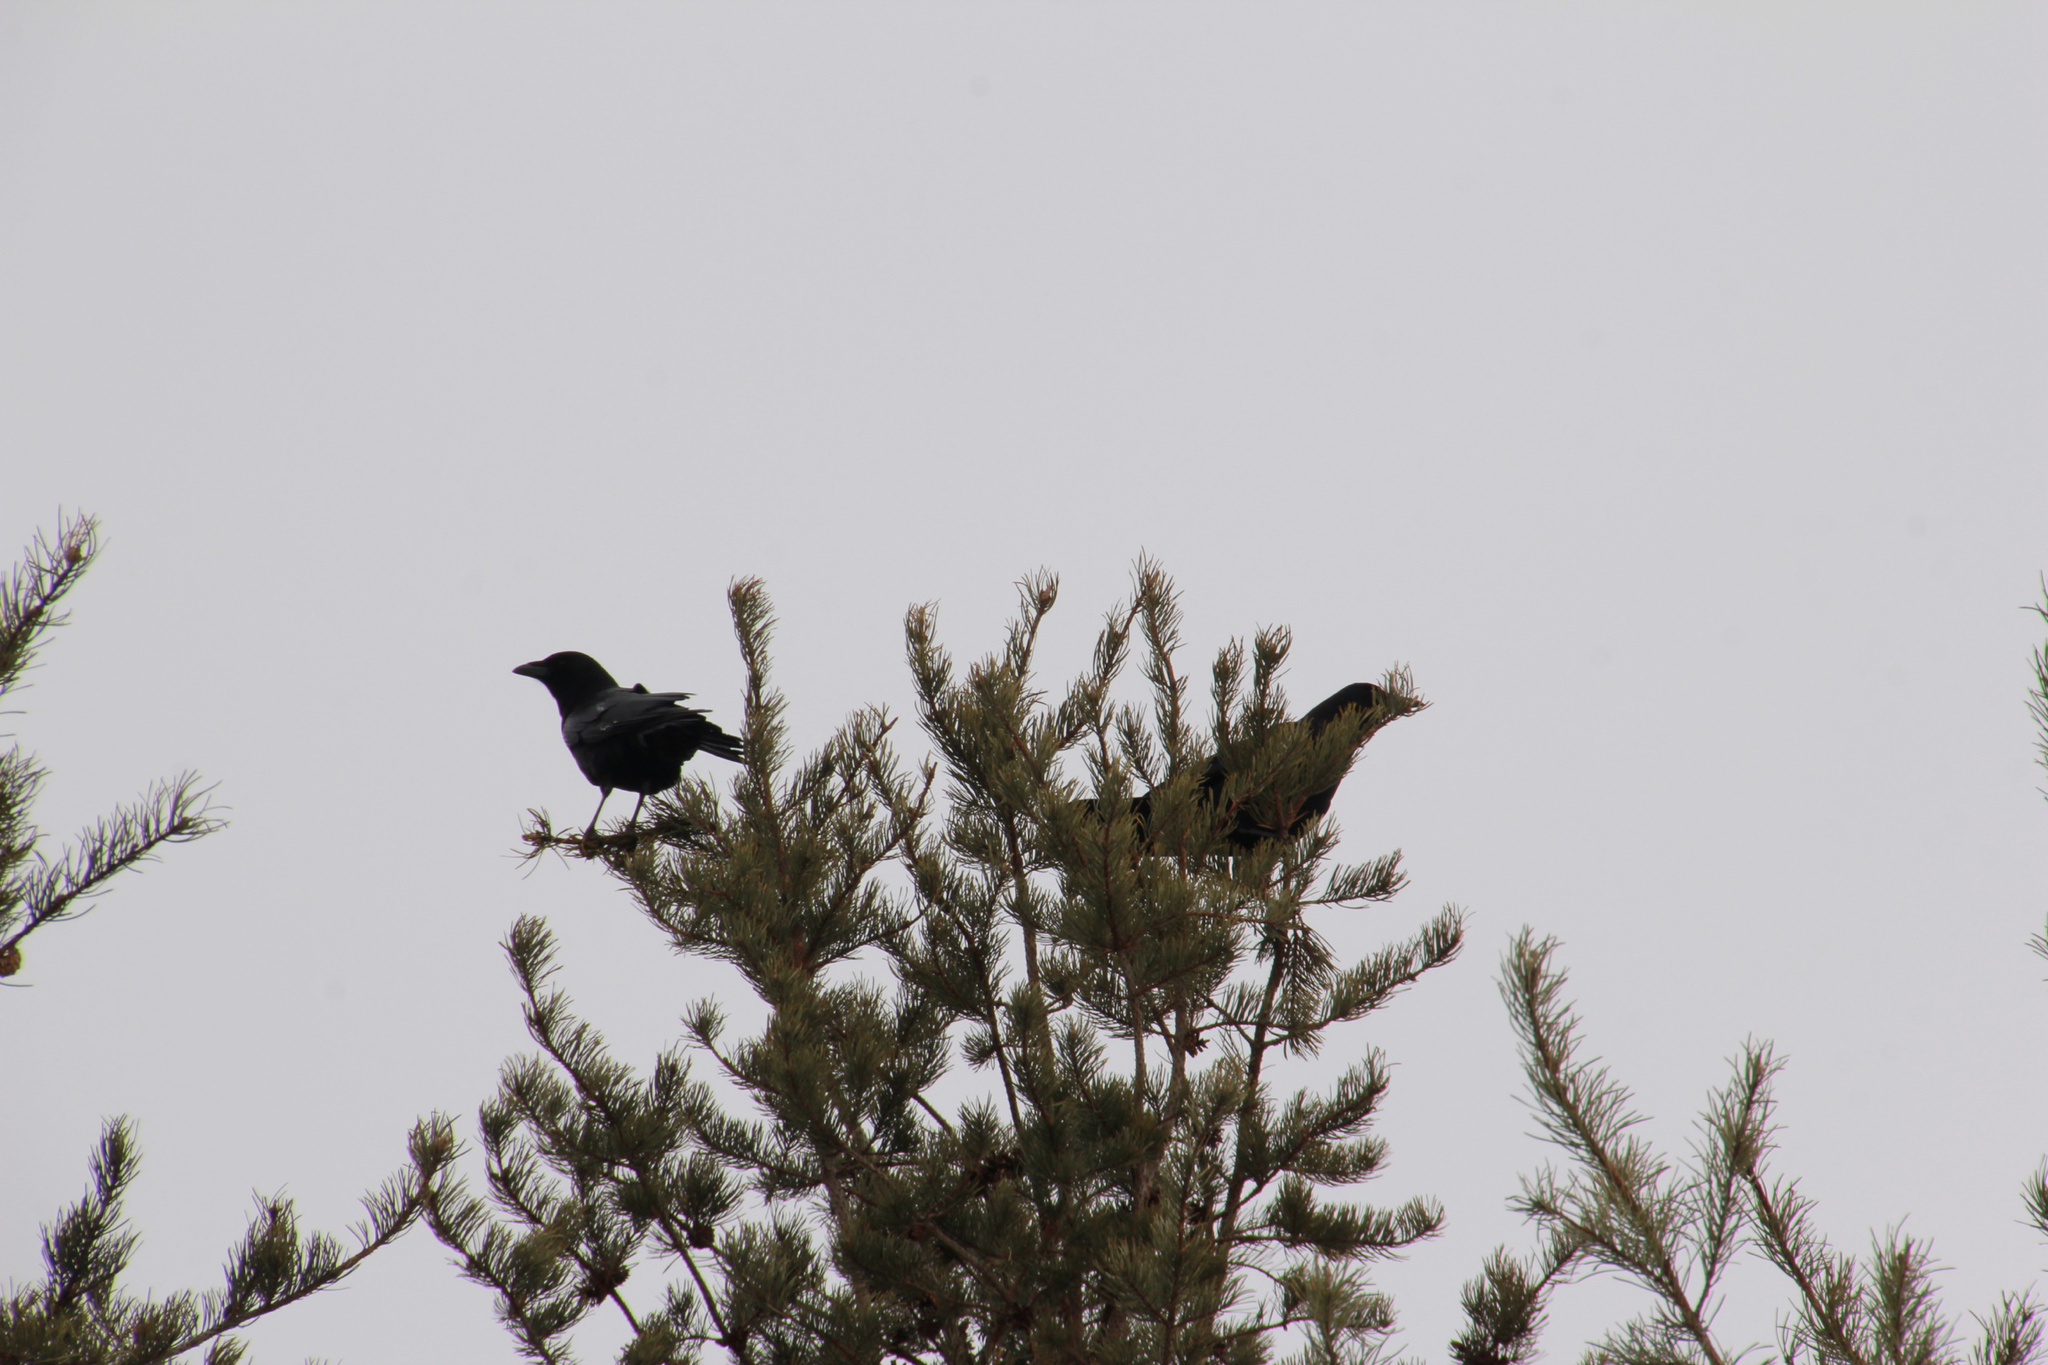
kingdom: Animalia
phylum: Chordata
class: Aves
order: Passeriformes
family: Corvidae
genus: Corvus
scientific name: Corvus brachyrhynchos
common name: American crow
